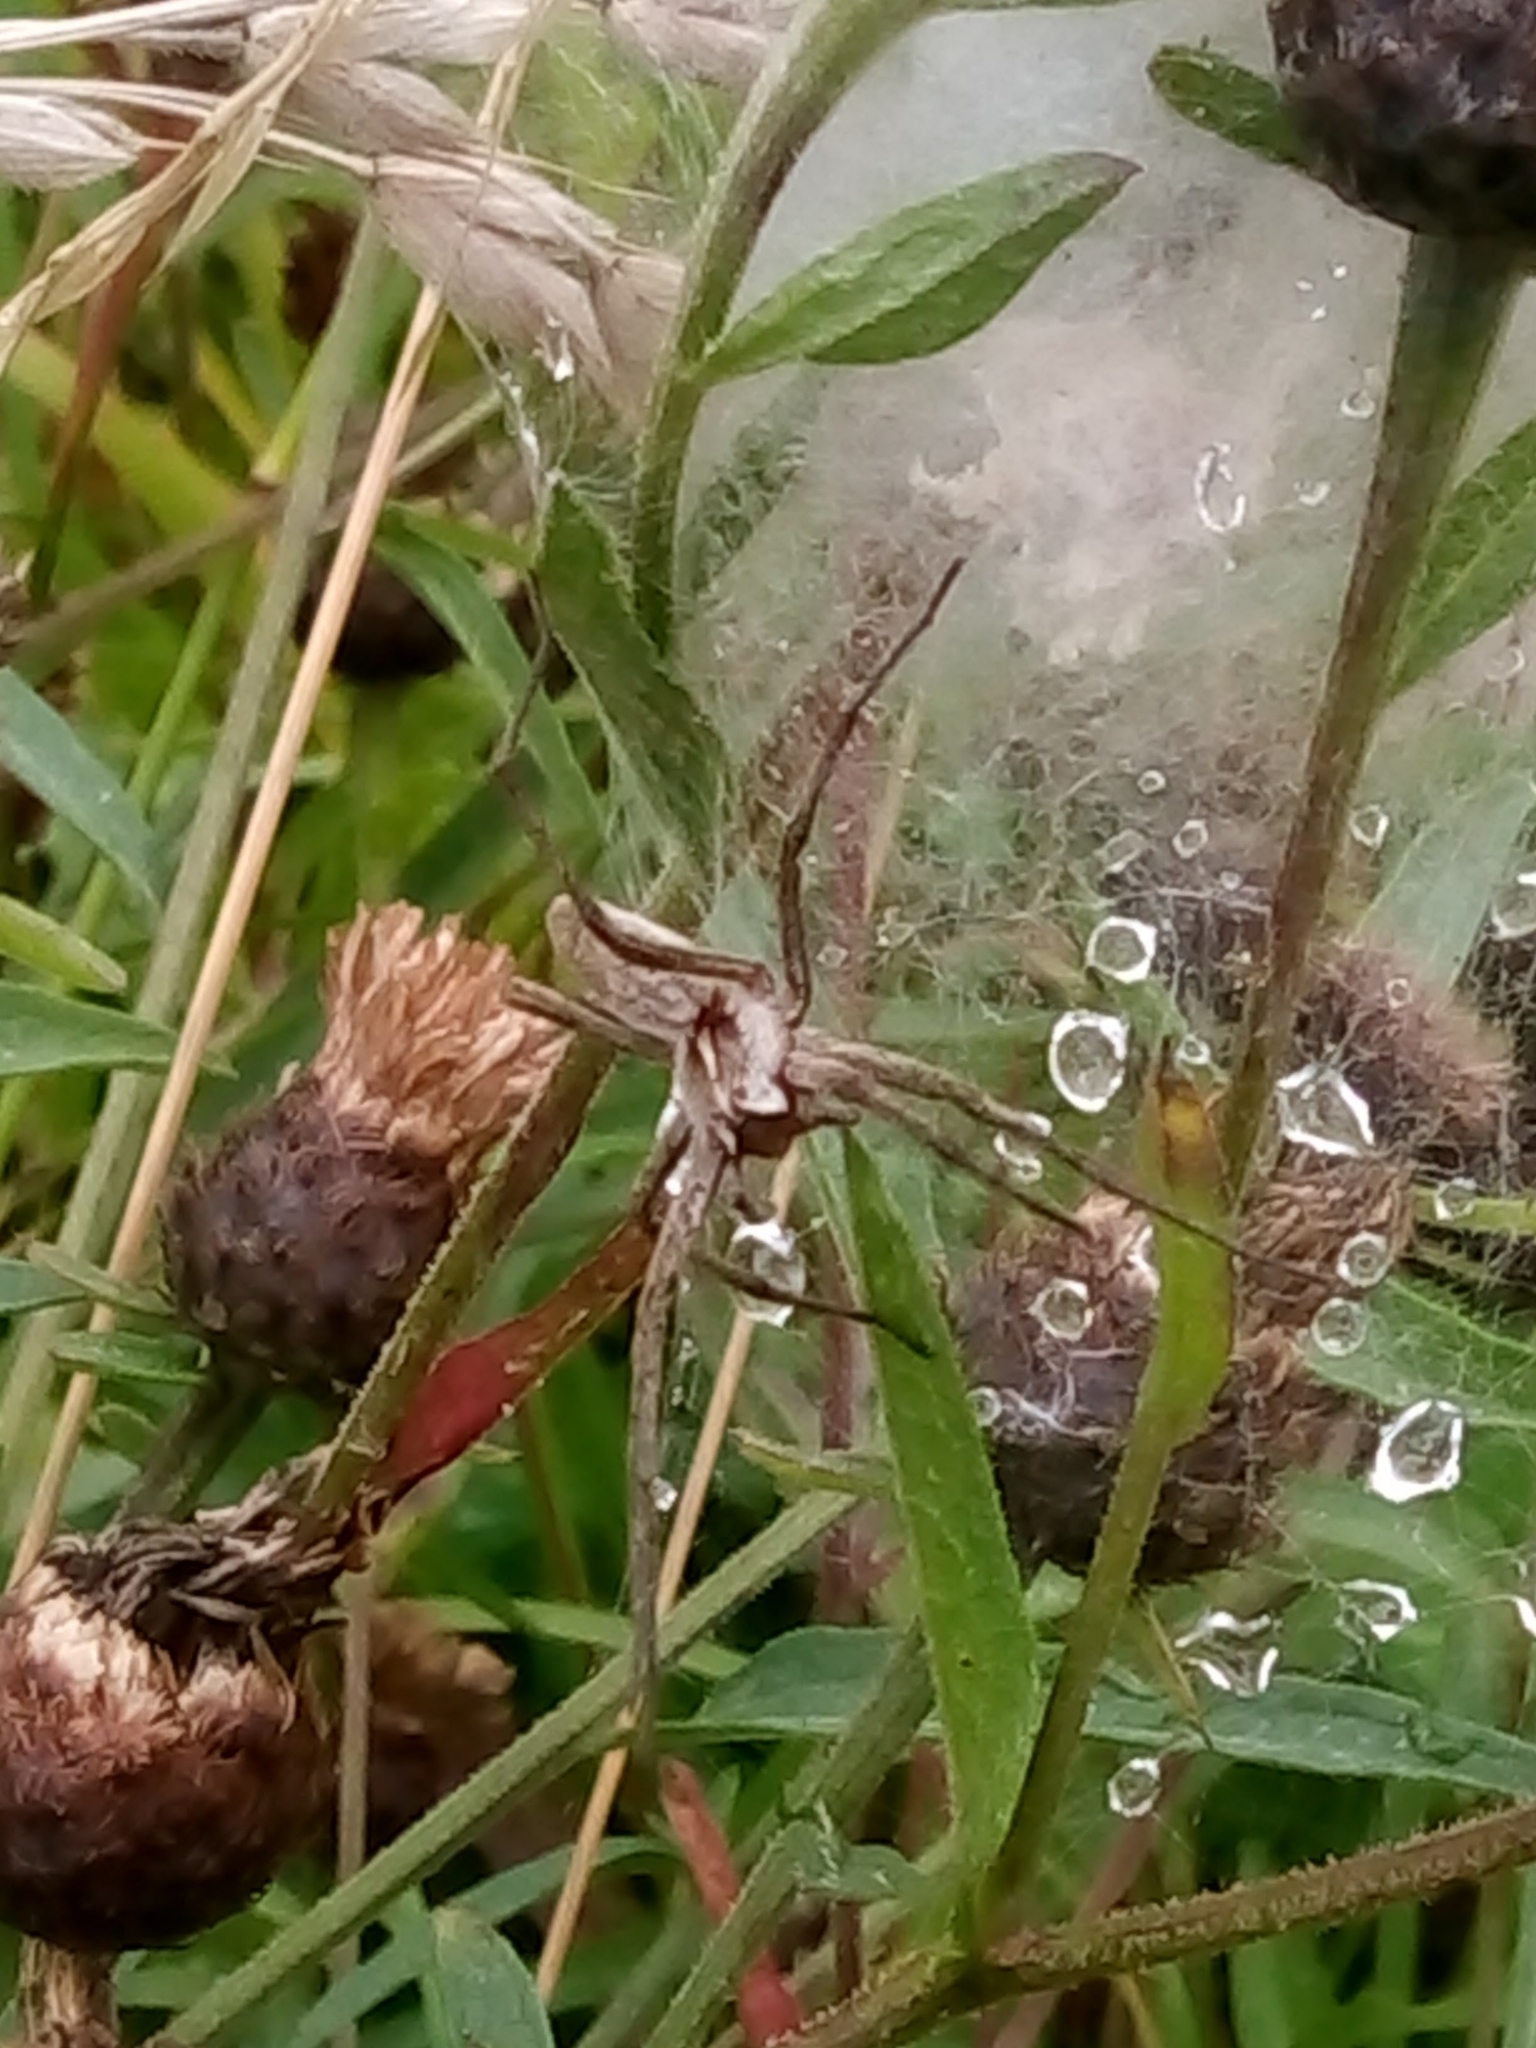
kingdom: Animalia
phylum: Arthropoda
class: Arachnida
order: Araneae
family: Pisauridae
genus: Pisaura
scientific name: Pisaura mirabilis
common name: Tent spider
